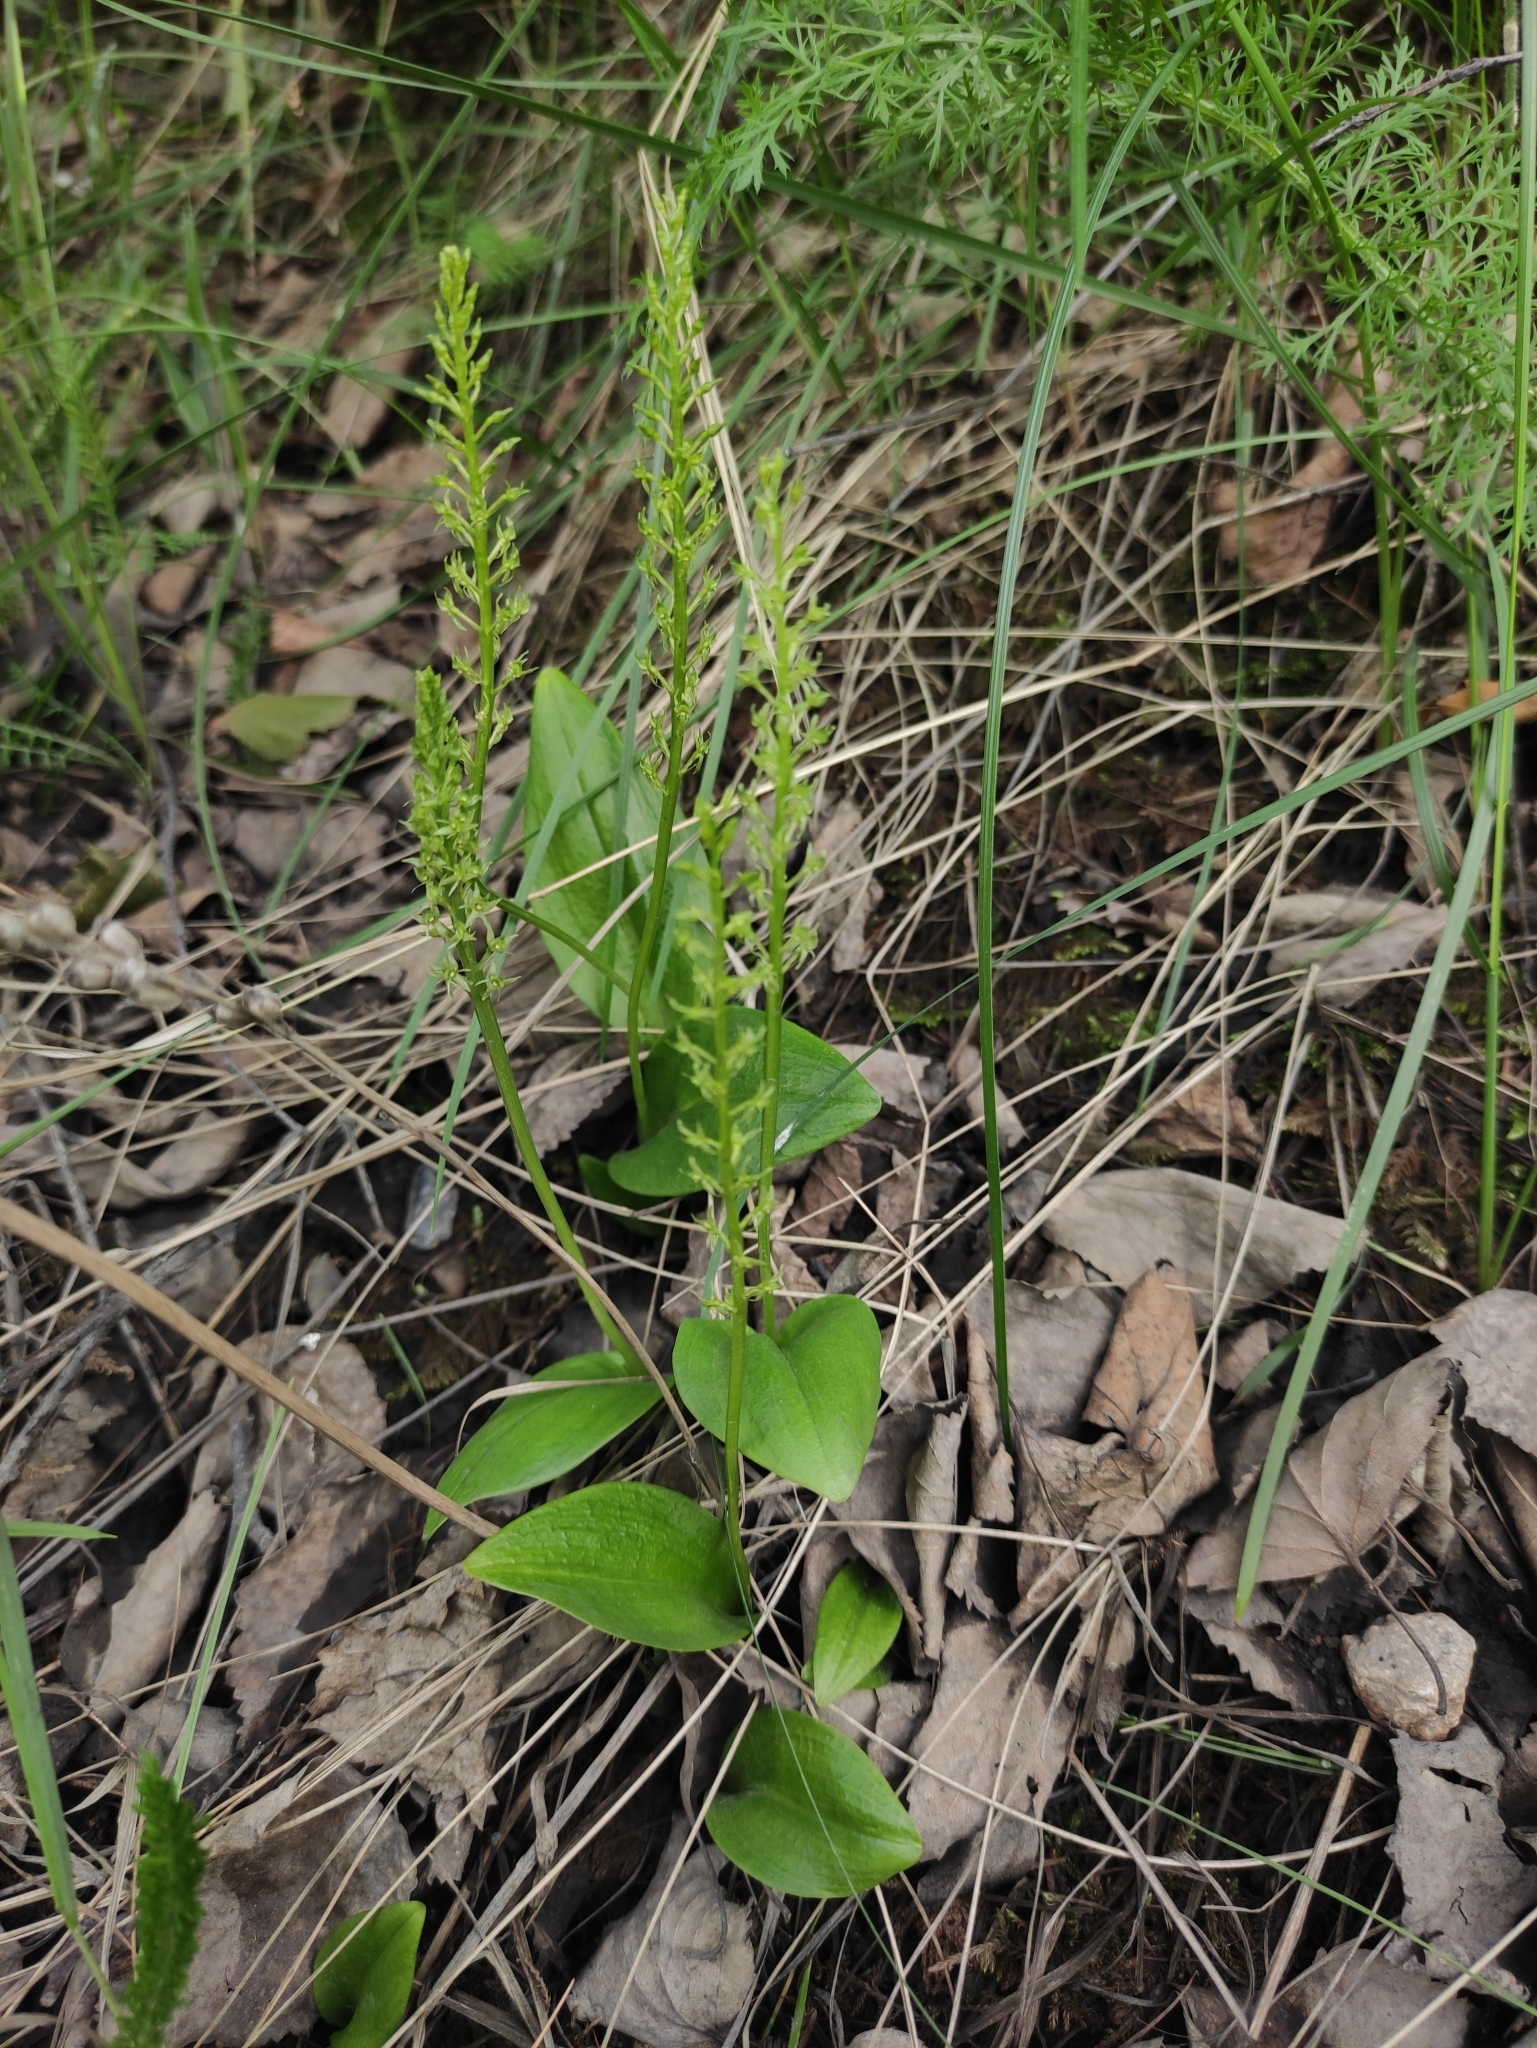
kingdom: Plantae
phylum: Tracheophyta
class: Liliopsida
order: Asparagales
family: Orchidaceae
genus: Malaxis
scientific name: Malaxis monophyllos
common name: White adder's-mouth
